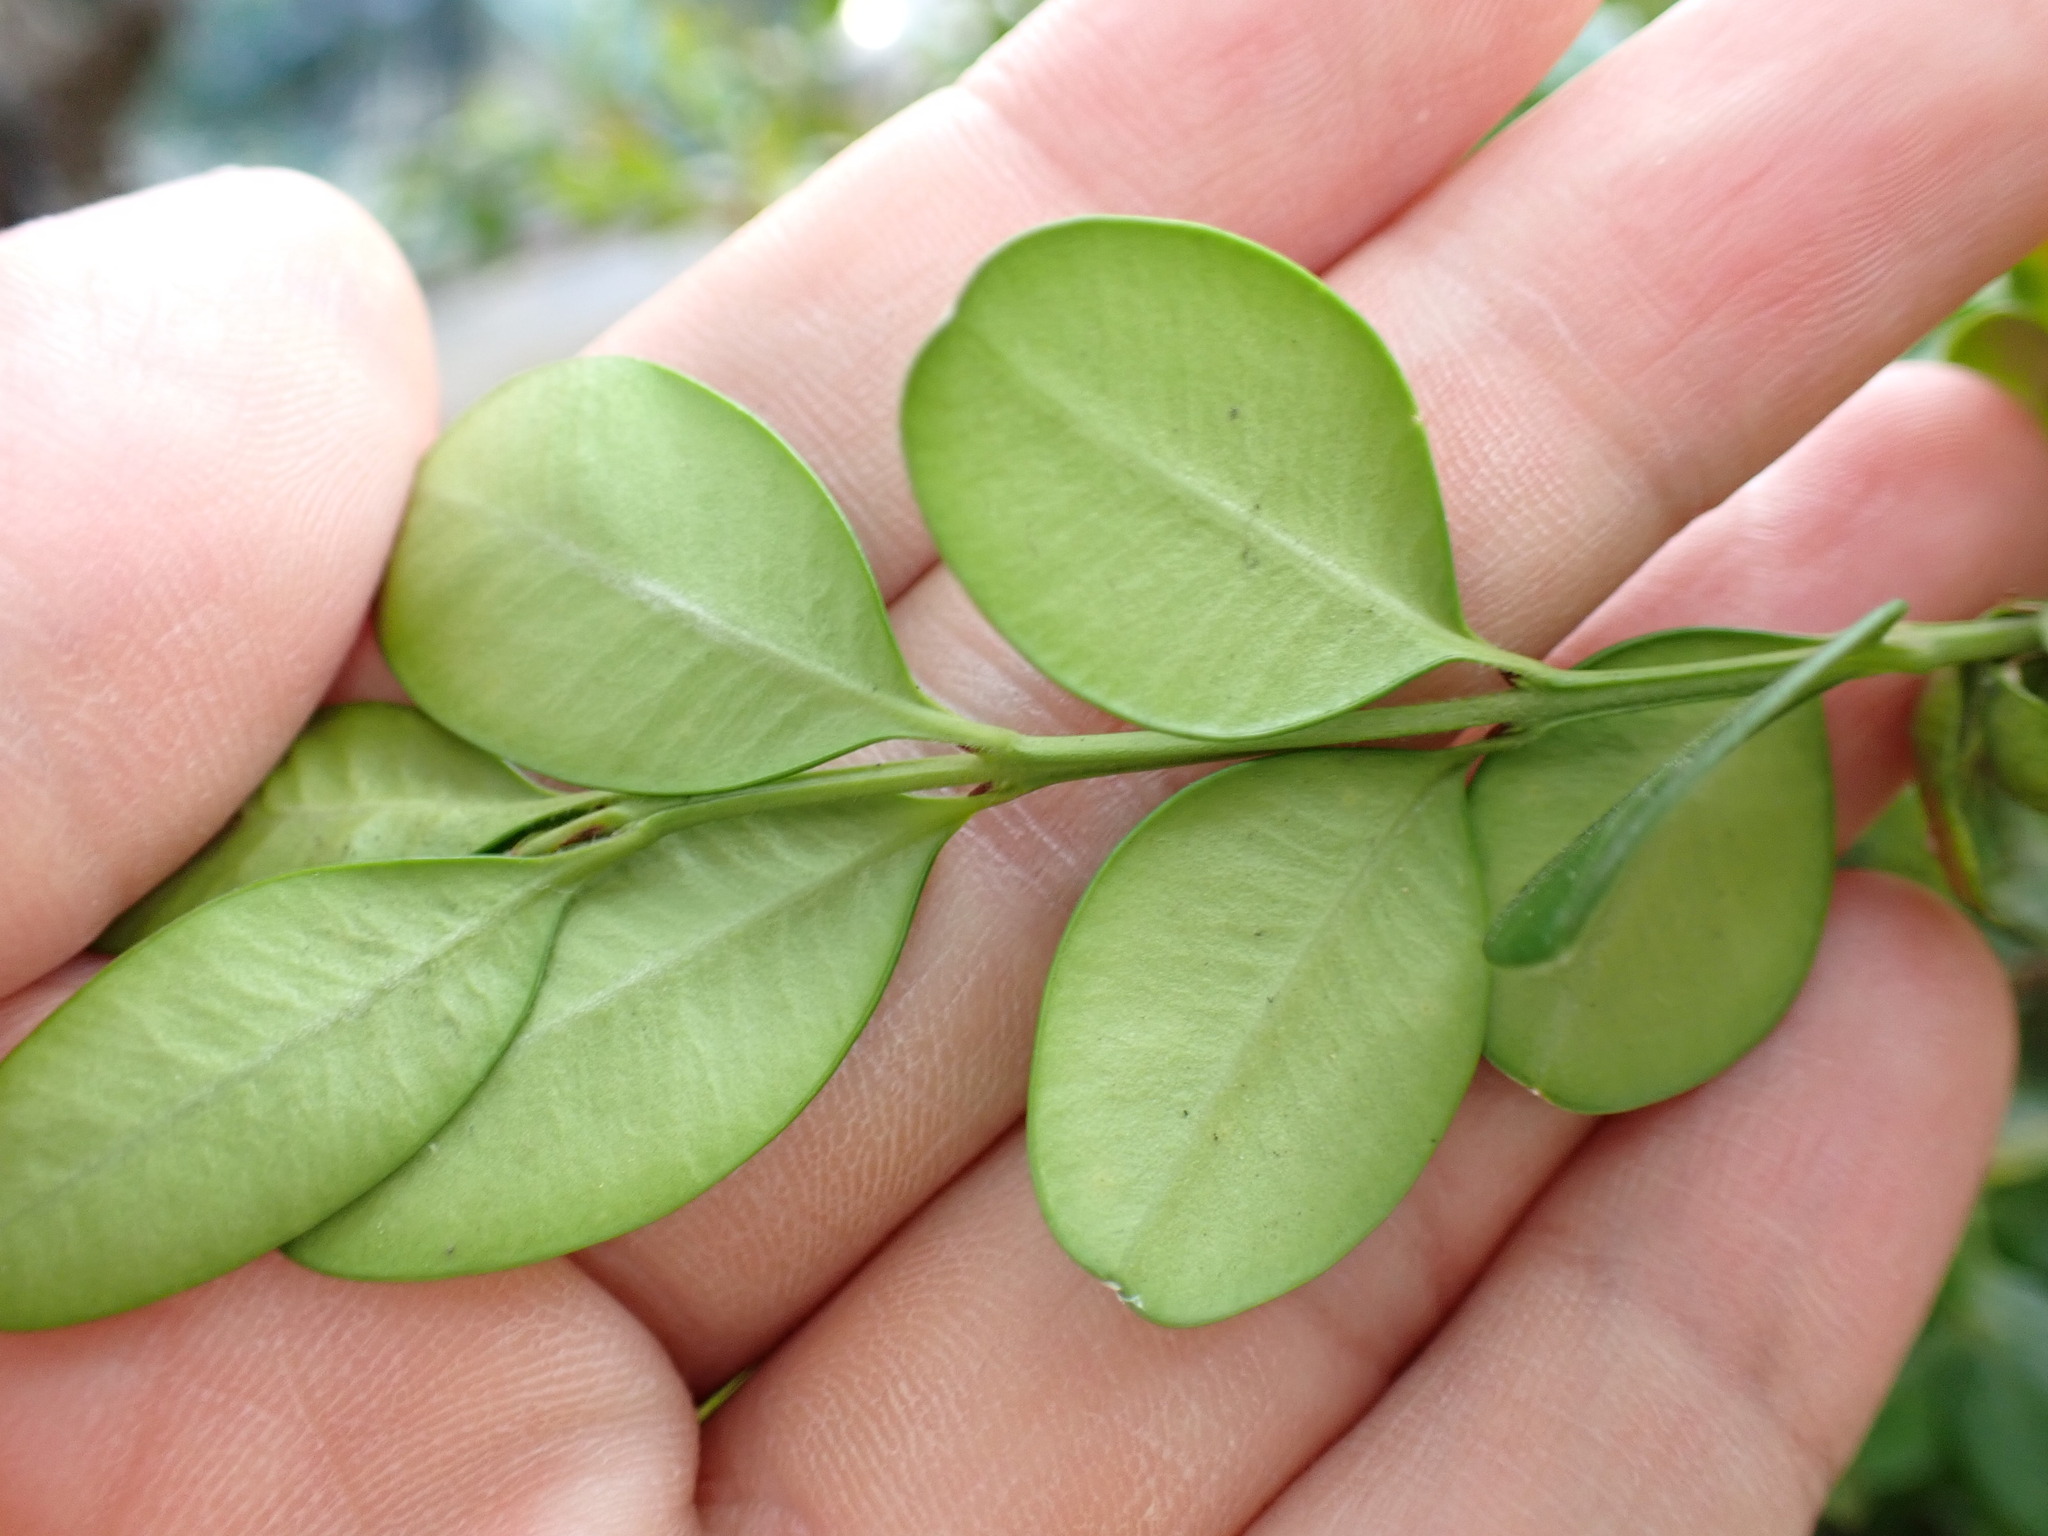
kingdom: Animalia
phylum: Arthropoda
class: Insecta
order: Diptera
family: Cecidomyiidae
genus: Monarthropalpus
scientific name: Monarthropalpus flavus
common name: Boxwood leafminer
